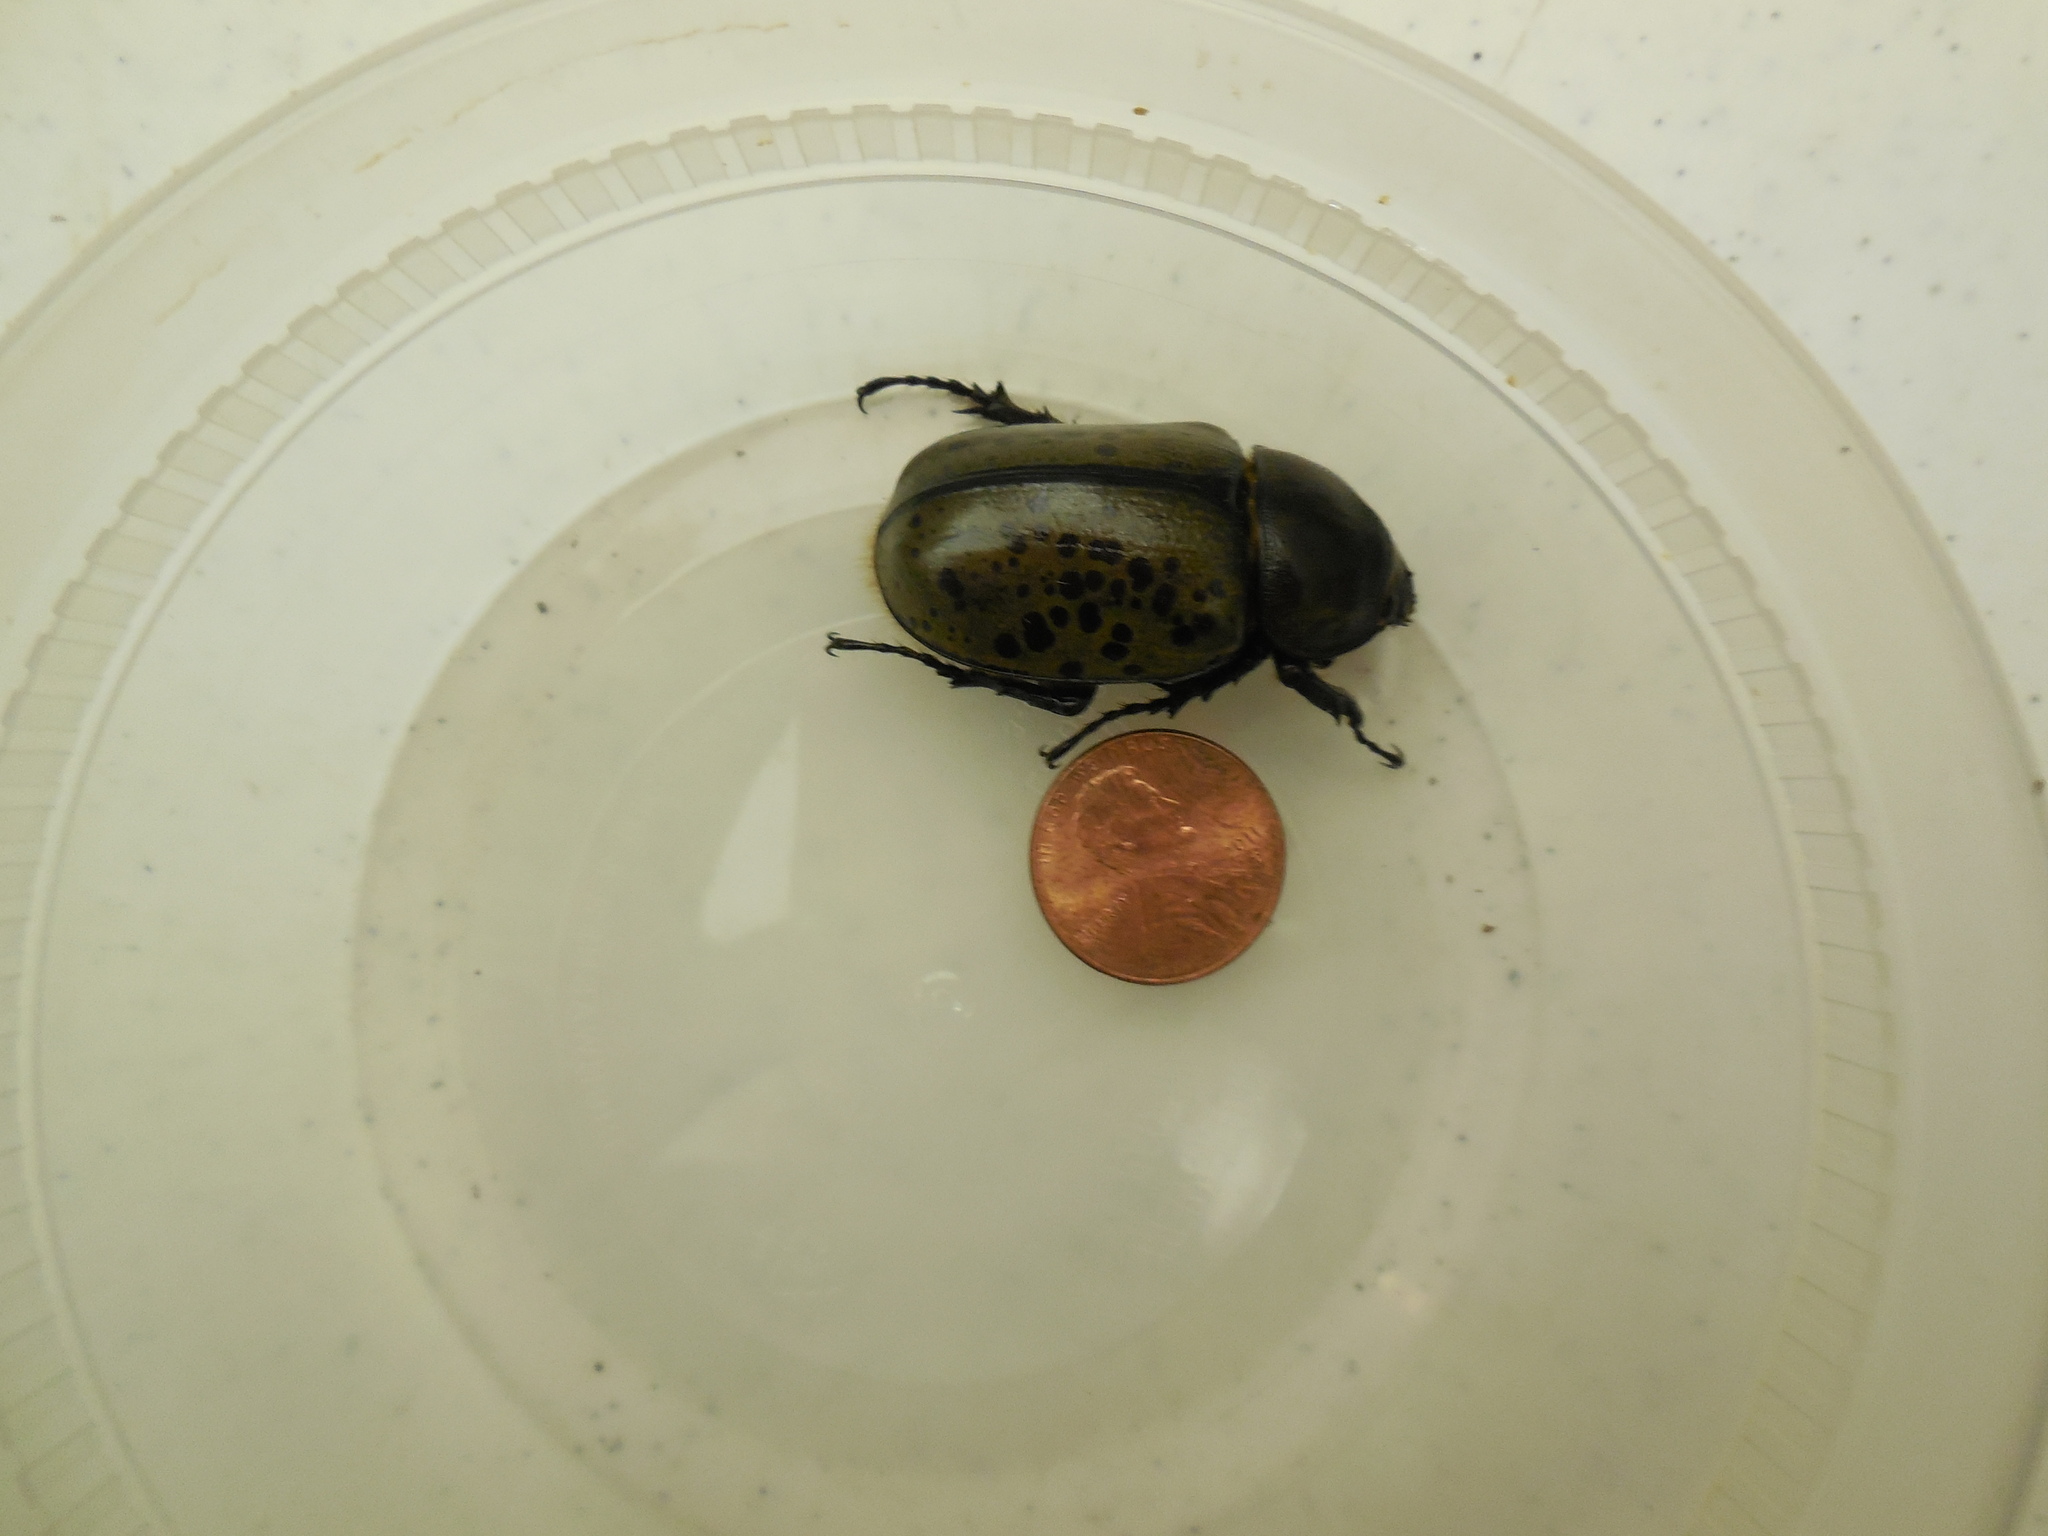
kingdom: Animalia
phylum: Arthropoda
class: Insecta
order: Coleoptera
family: Scarabaeidae
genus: Dynastes
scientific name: Dynastes tityus
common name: Eastern hercules beetle
